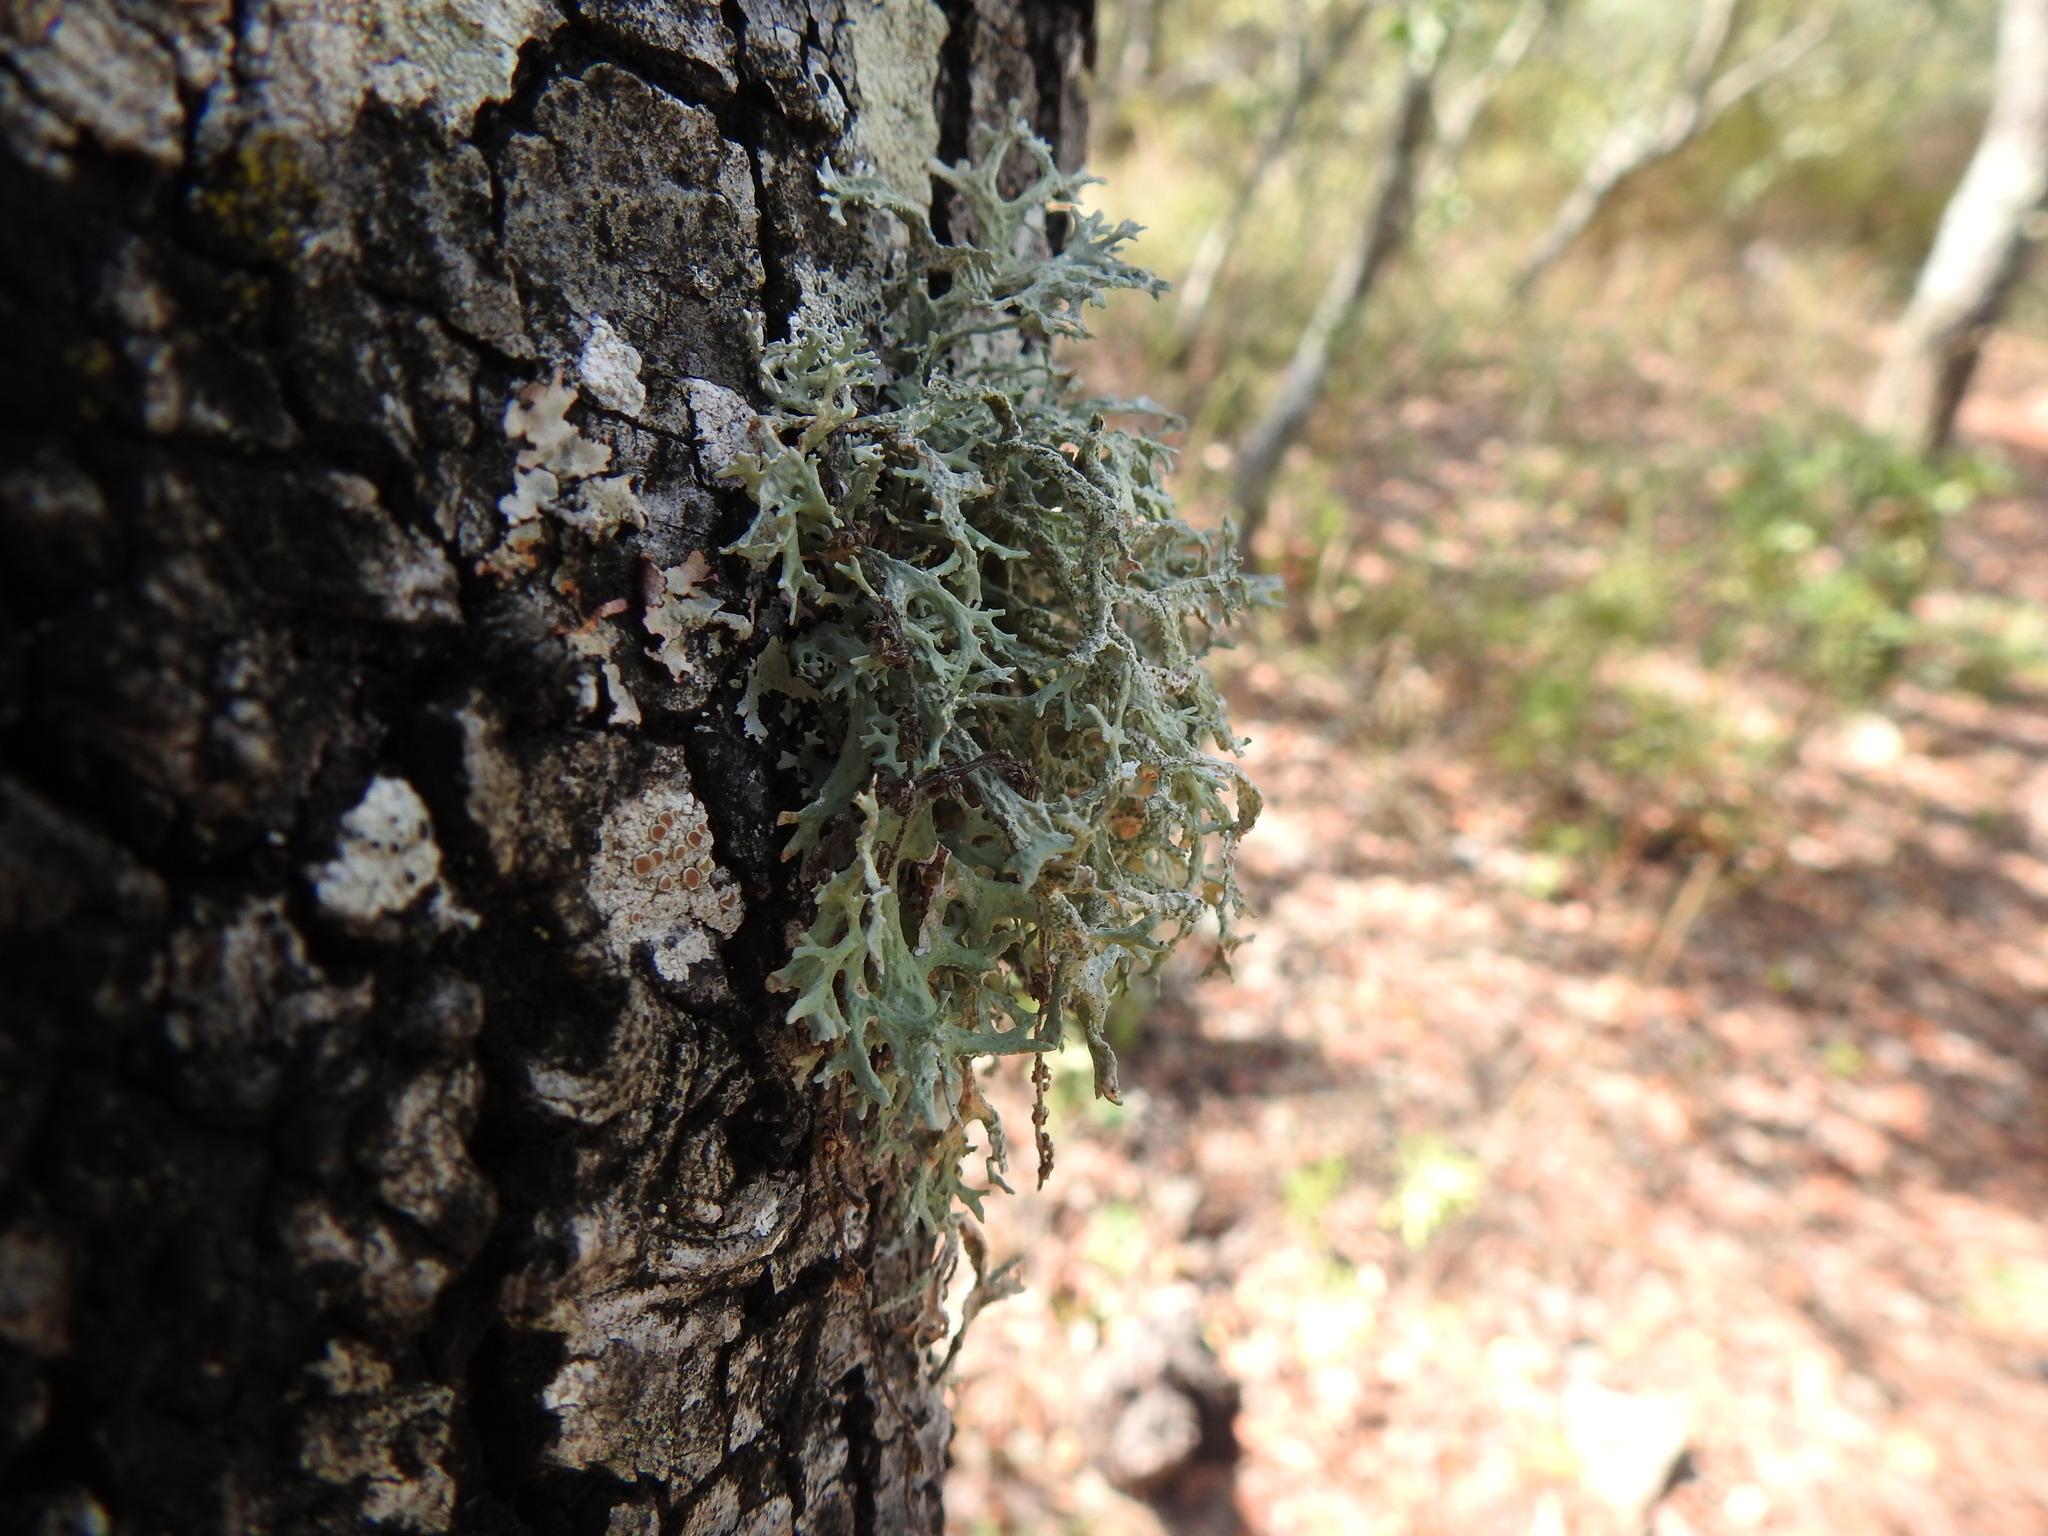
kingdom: Fungi
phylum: Ascomycota
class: Lecanoromycetes
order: Lecanorales
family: Parmeliaceae
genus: Evernia
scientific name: Evernia prunastri
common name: Oak moss
